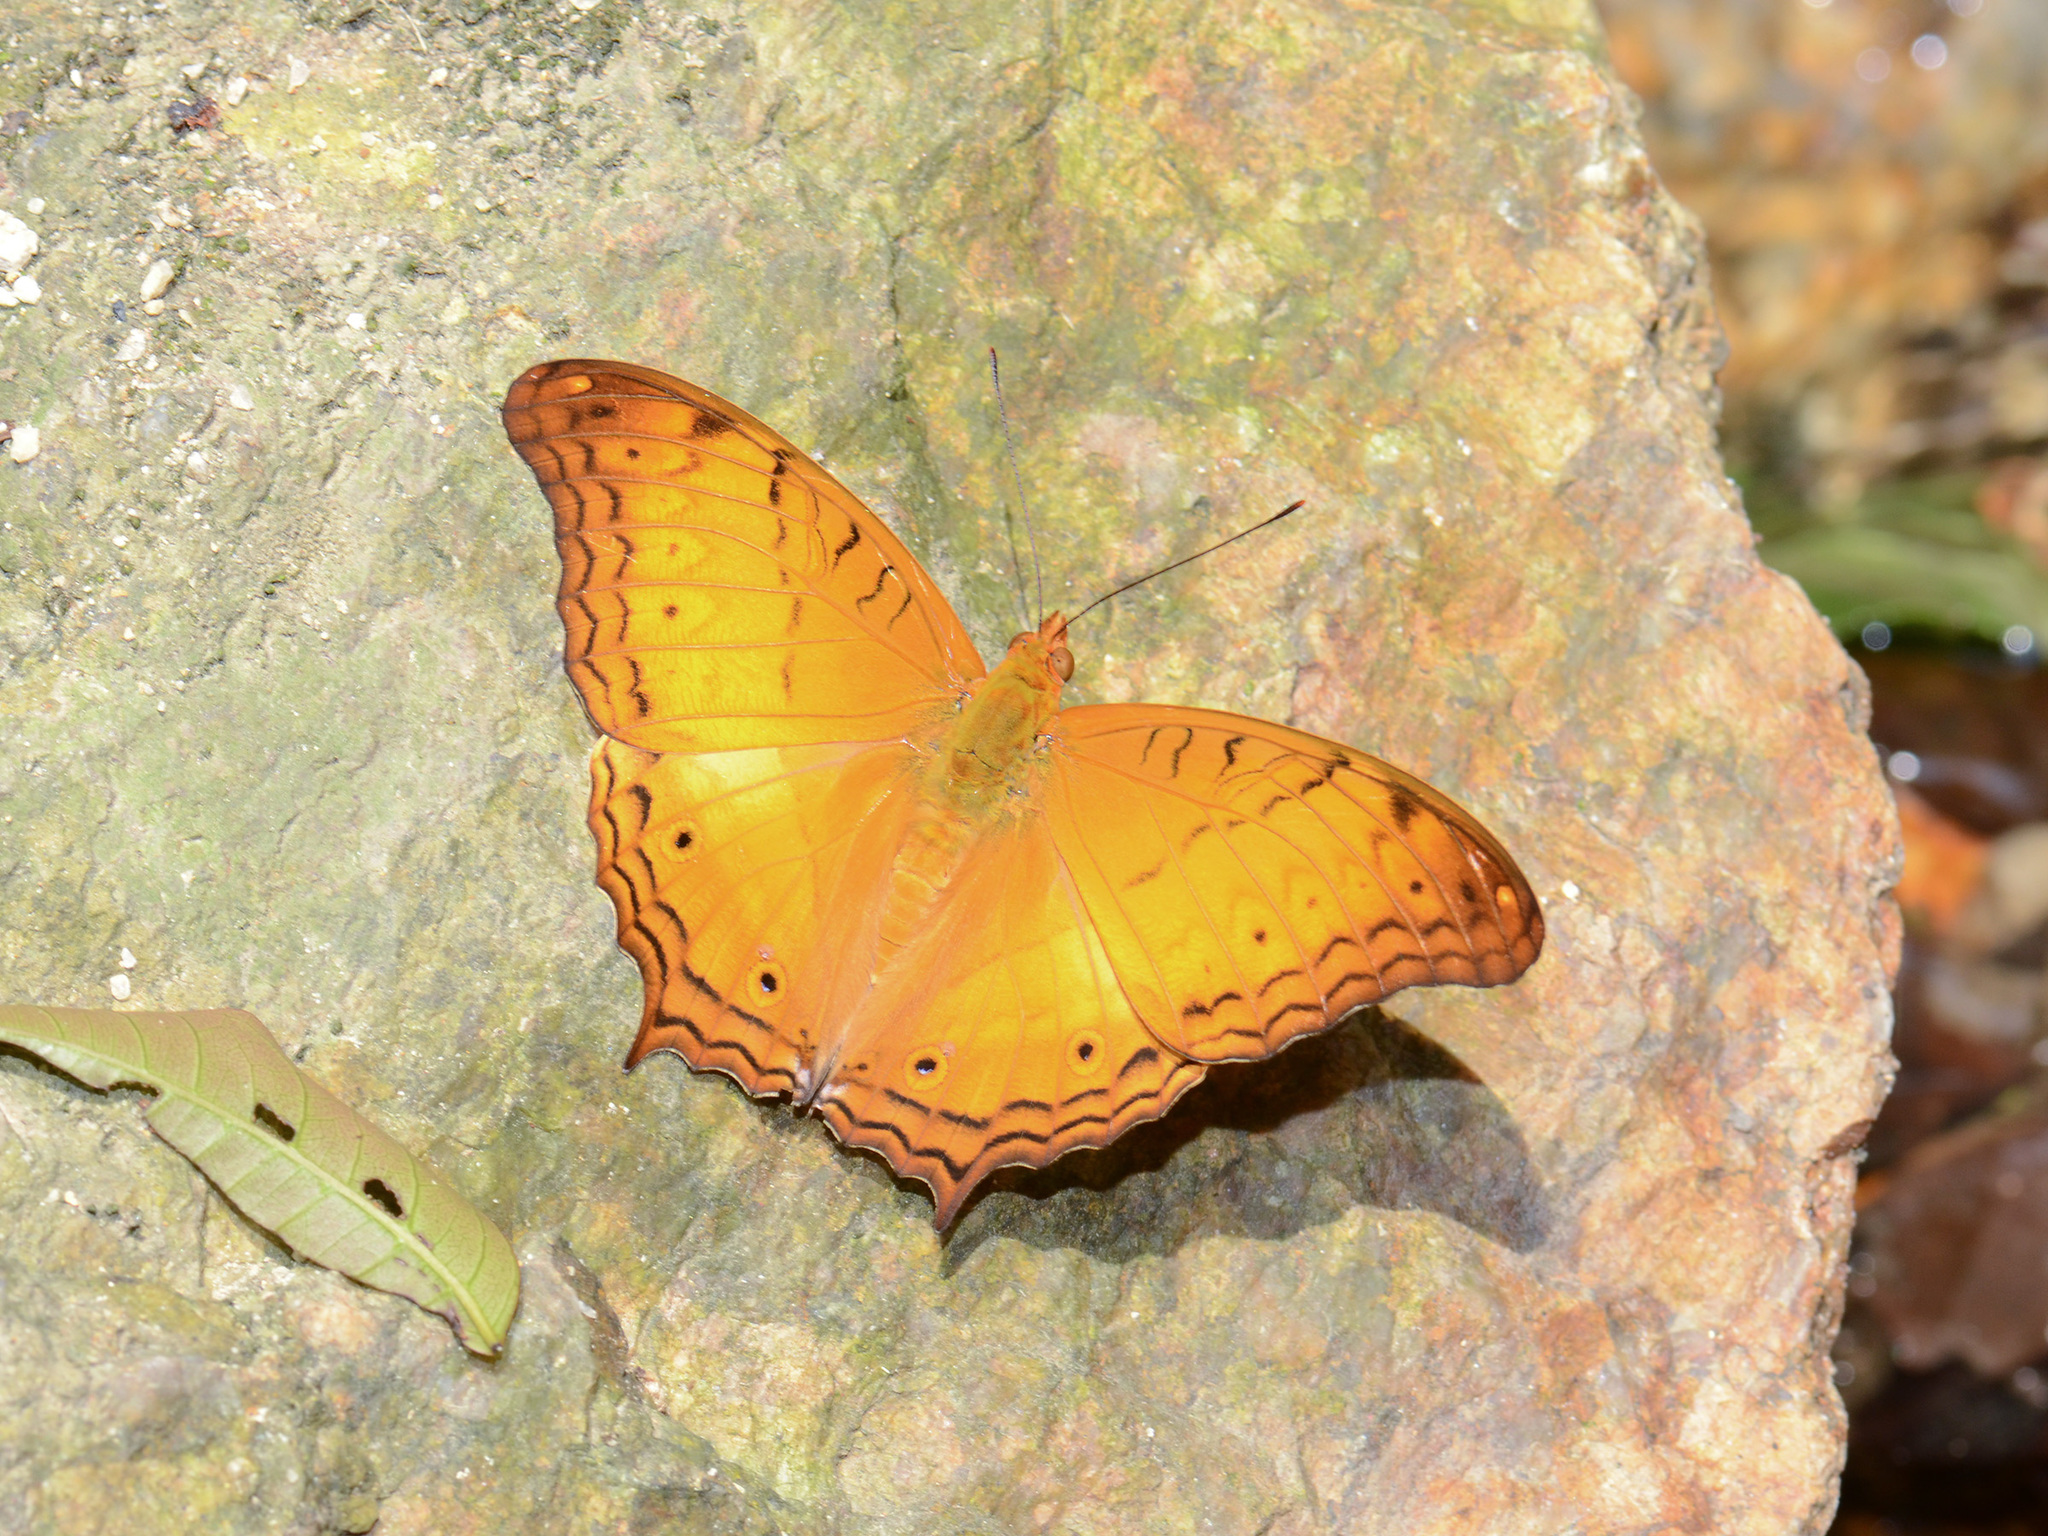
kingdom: Animalia
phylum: Arthropoda
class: Insecta
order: Lepidoptera
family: Nymphalidae
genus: Vindula
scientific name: Vindula deione
